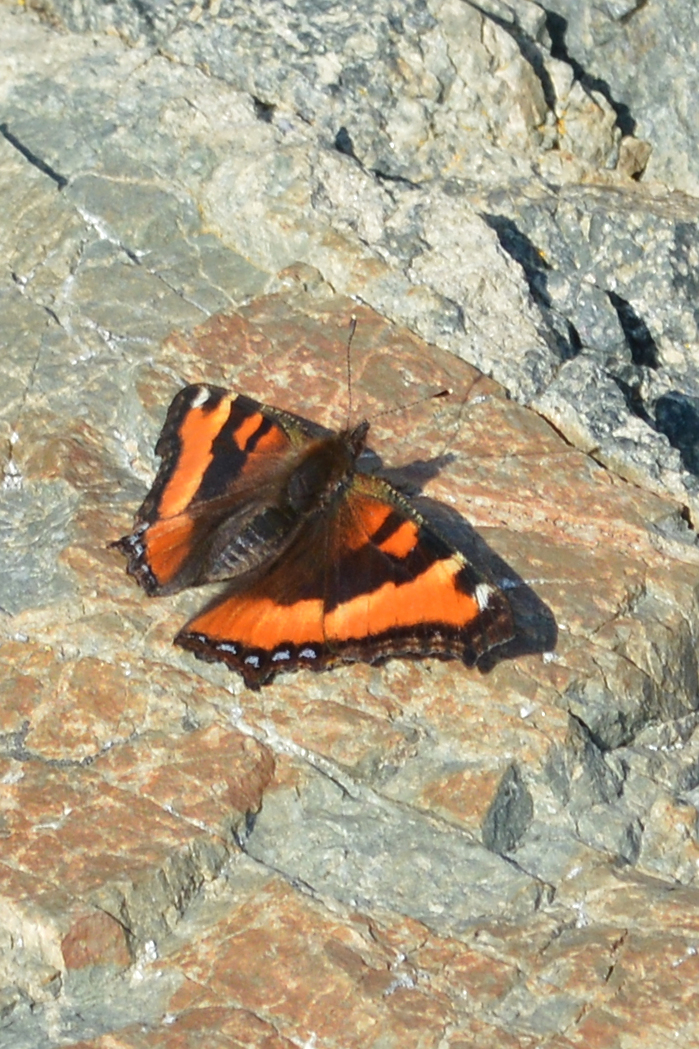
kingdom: Animalia
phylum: Arthropoda
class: Insecta
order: Lepidoptera
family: Nymphalidae
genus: Aglais
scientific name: Aglais milberti
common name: Milbert's tortoiseshell
